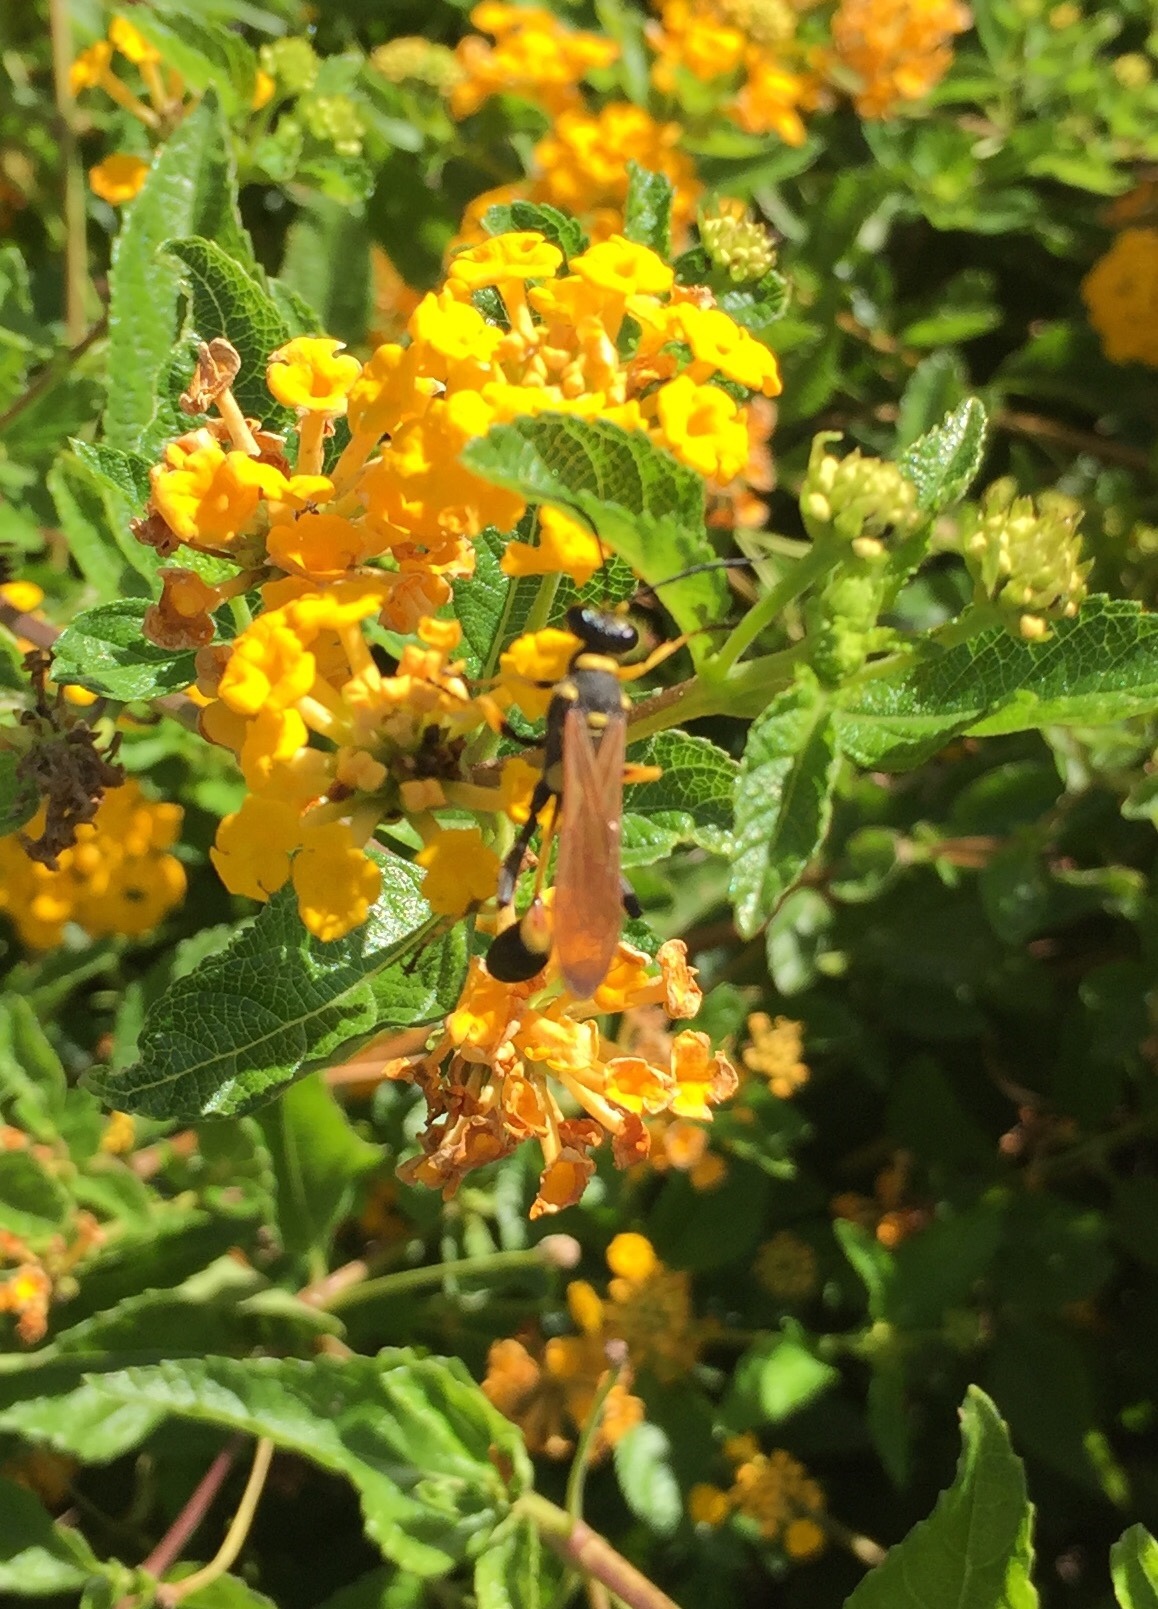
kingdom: Animalia
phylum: Arthropoda
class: Insecta
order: Hymenoptera
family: Sphecidae
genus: Sceliphron
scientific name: Sceliphron caementarium
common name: Mud dauber
